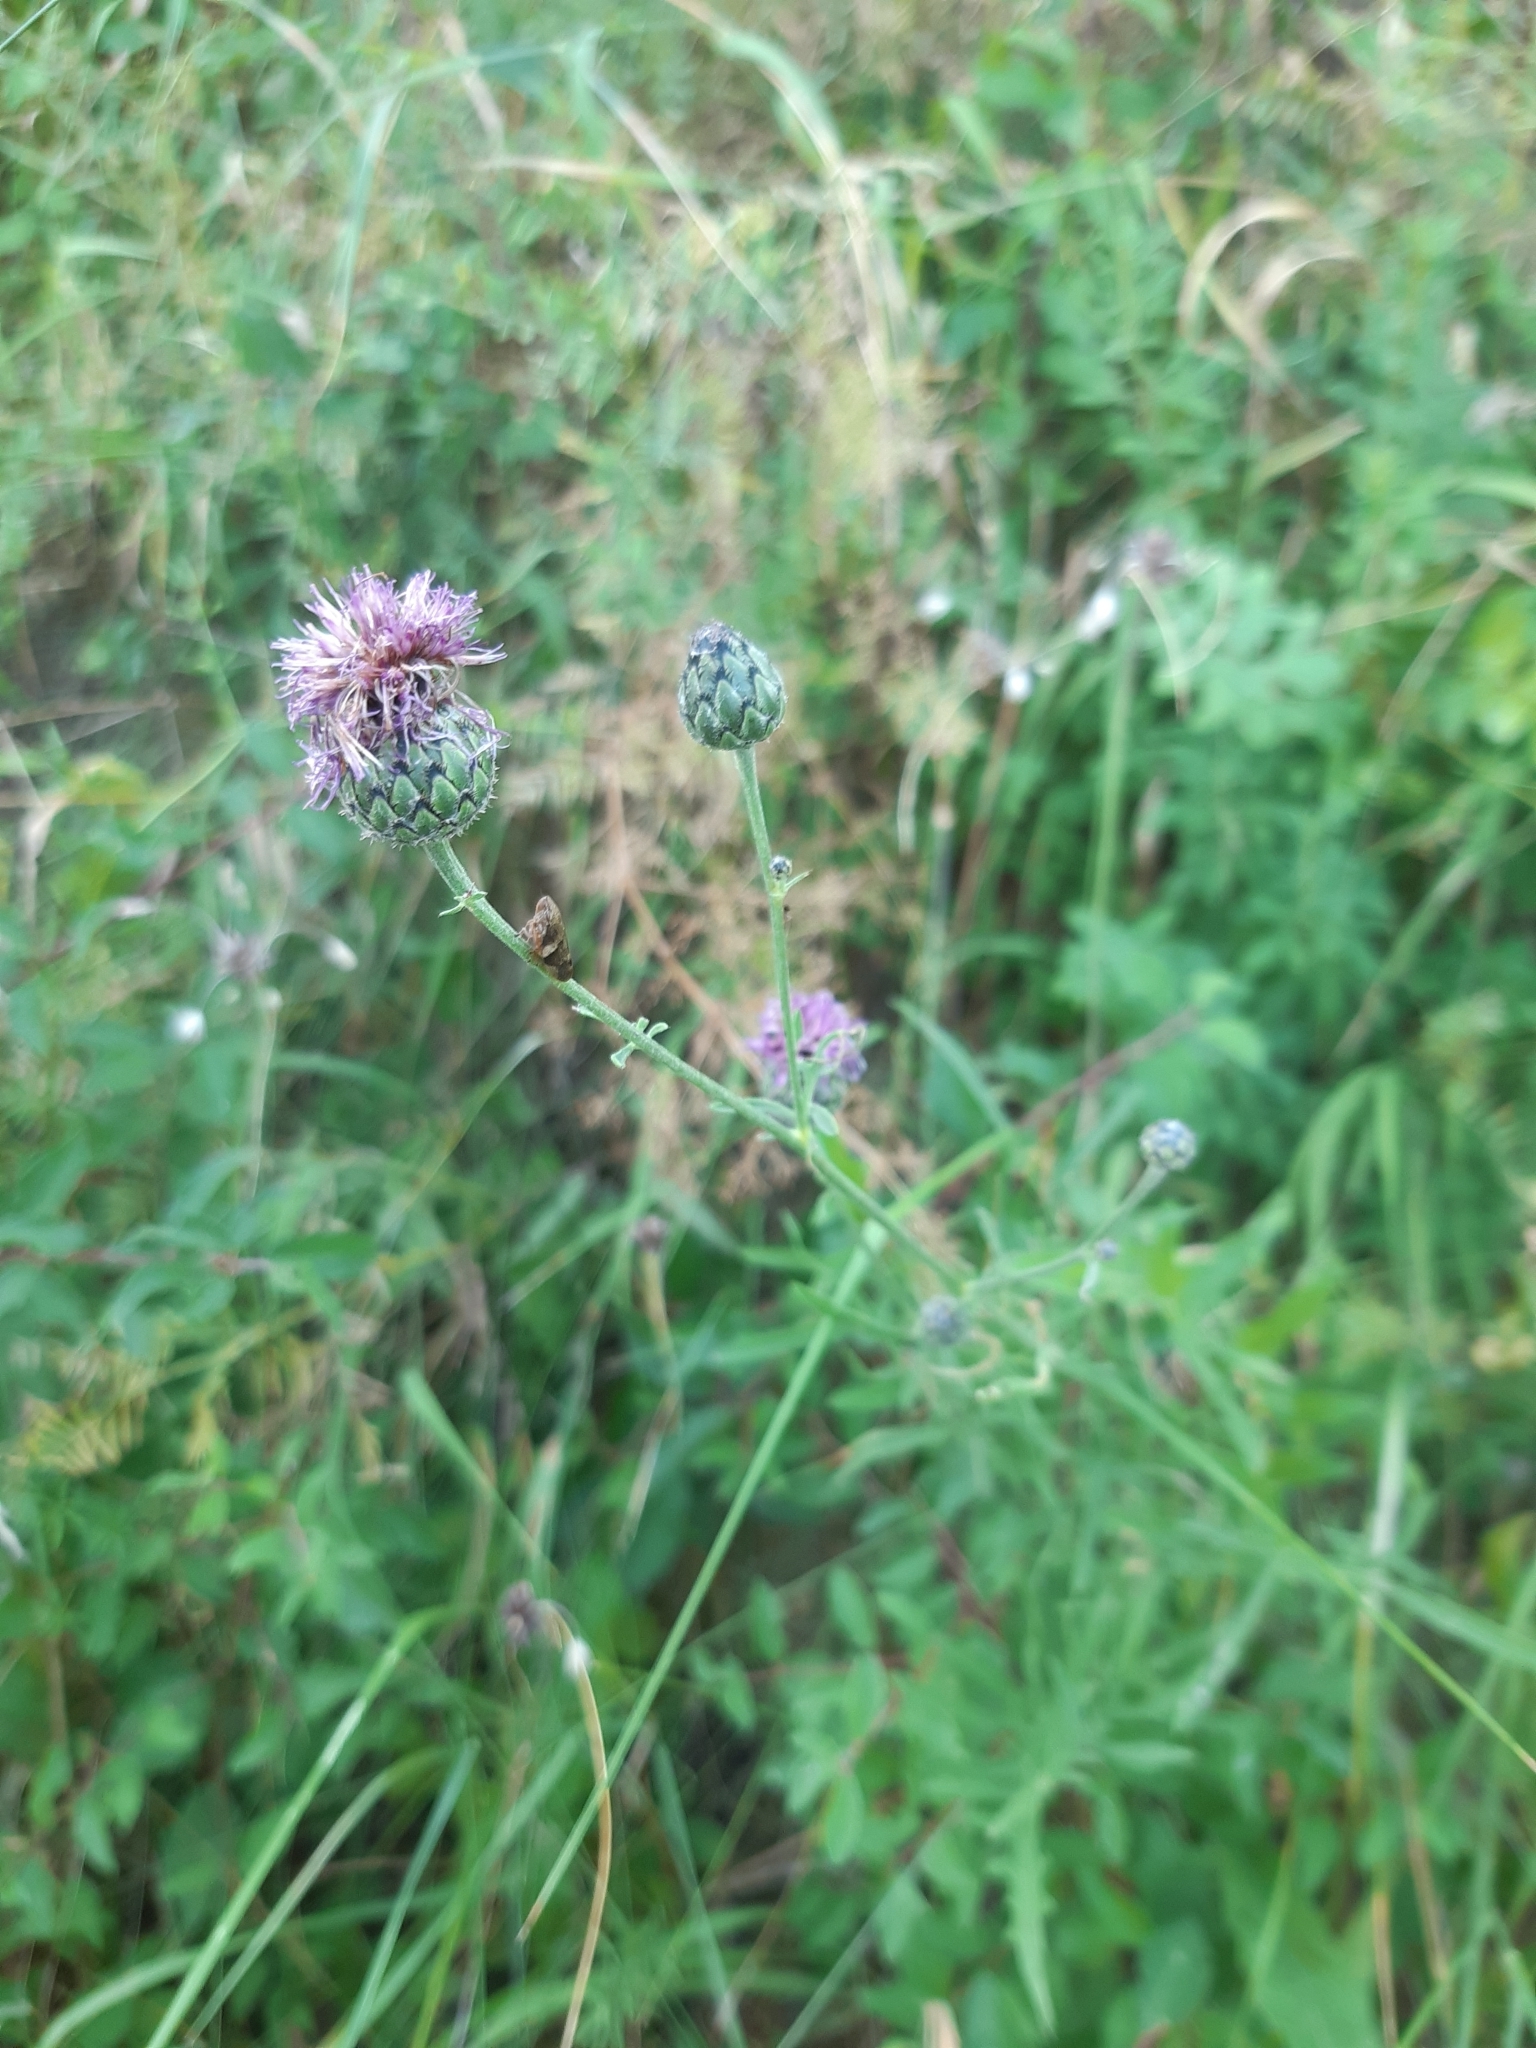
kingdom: Plantae
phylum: Tracheophyta
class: Magnoliopsida
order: Asterales
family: Asteraceae
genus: Centaurea
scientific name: Centaurea scabiosa
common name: Greater knapweed
